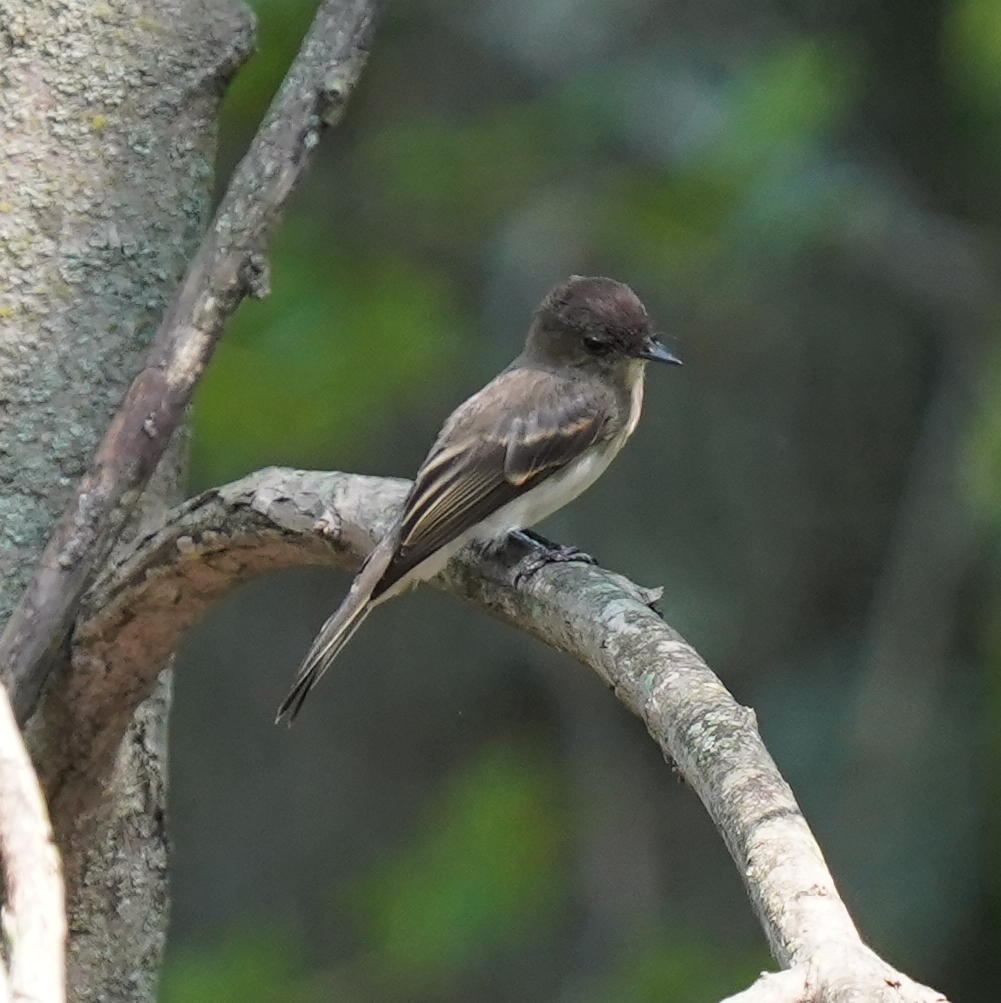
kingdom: Animalia
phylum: Chordata
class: Aves
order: Passeriformes
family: Tyrannidae
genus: Sayornis
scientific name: Sayornis phoebe
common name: Eastern phoebe
